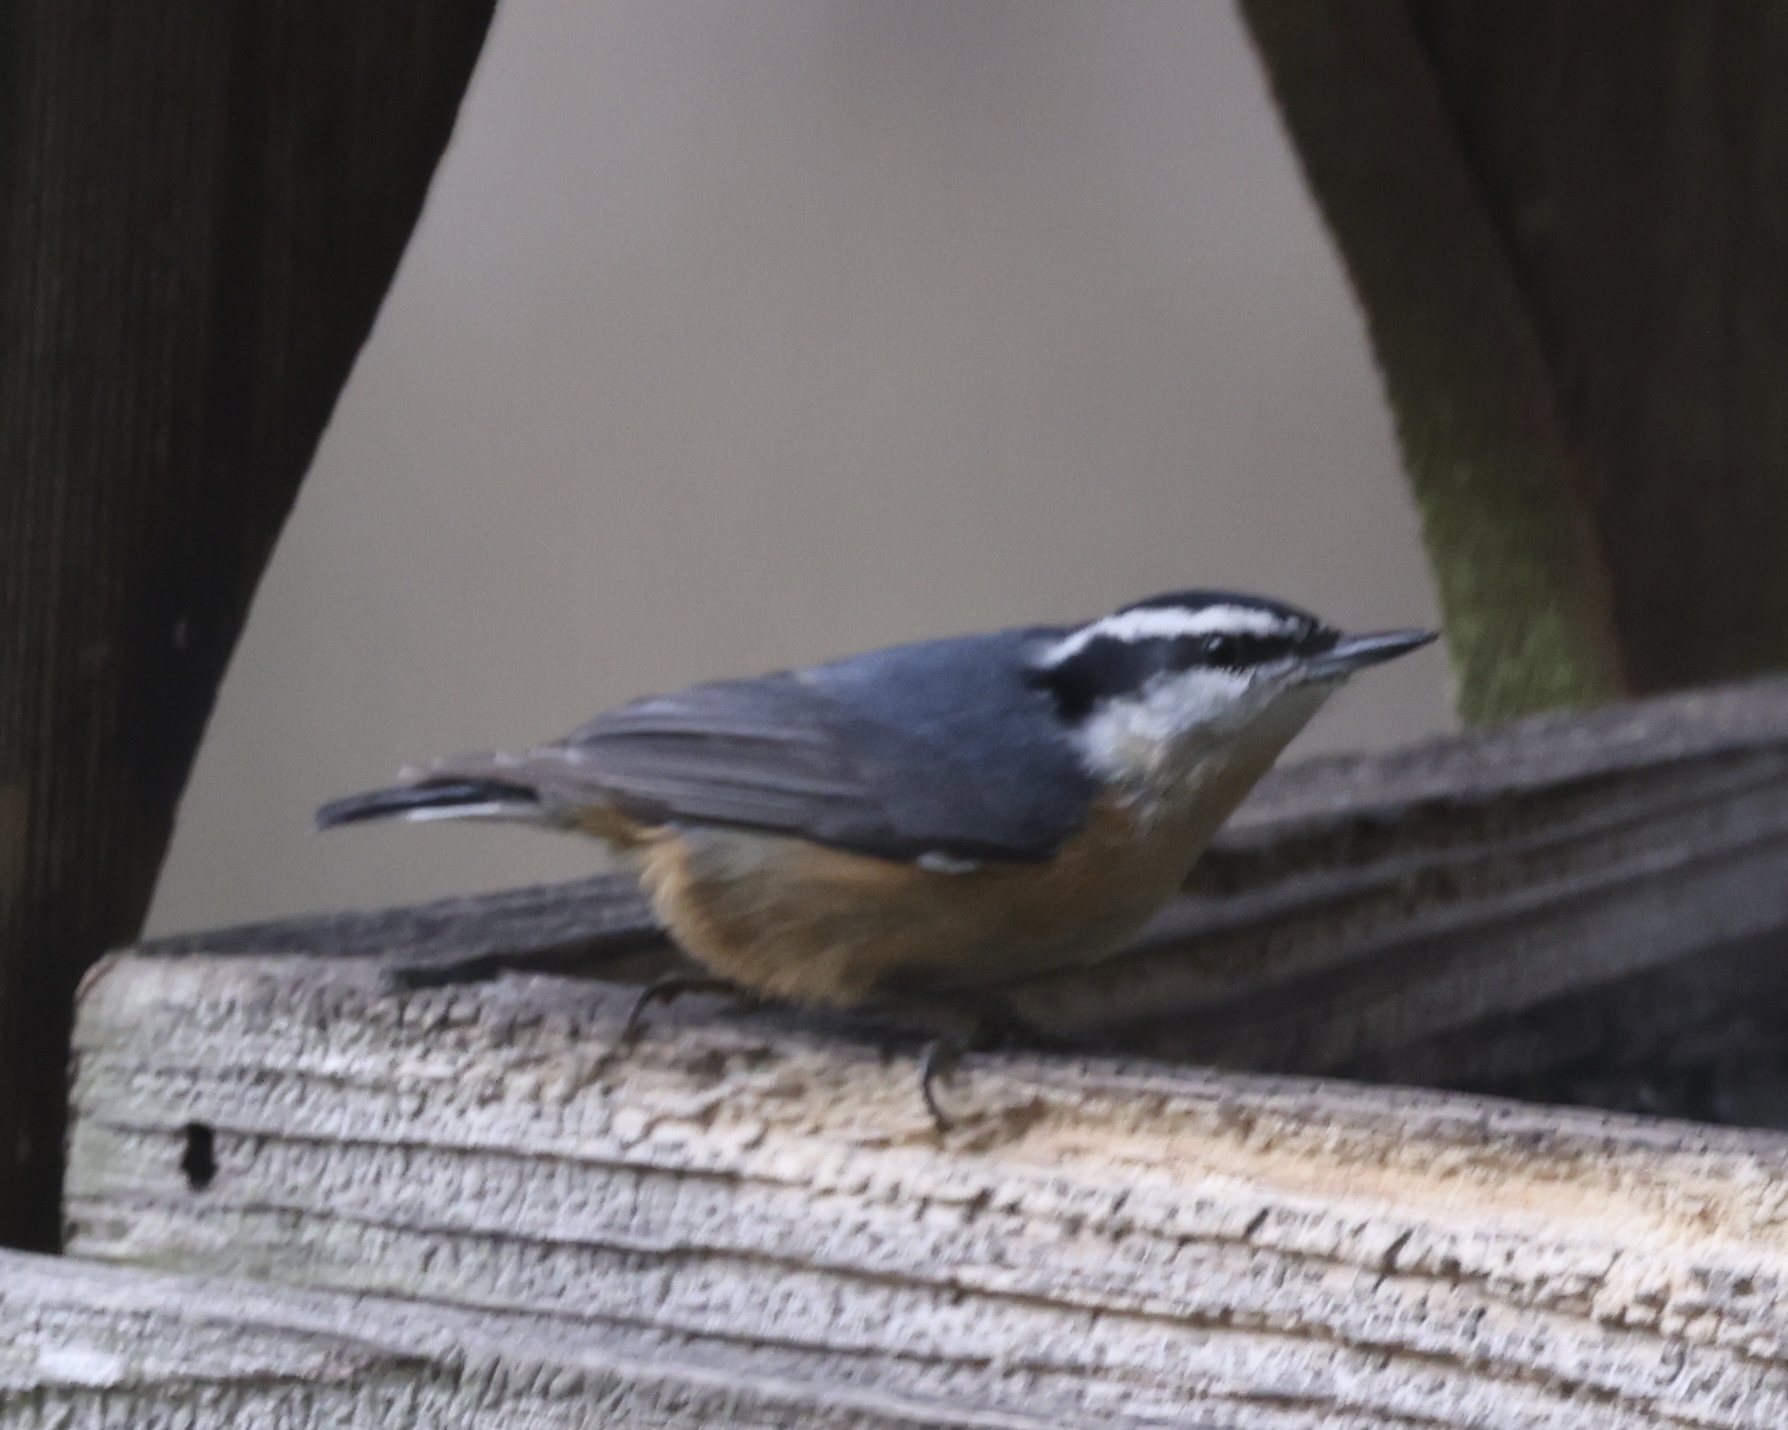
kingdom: Animalia
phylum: Chordata
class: Aves
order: Passeriformes
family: Sittidae
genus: Sitta
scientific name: Sitta canadensis
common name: Red-breasted nuthatch
